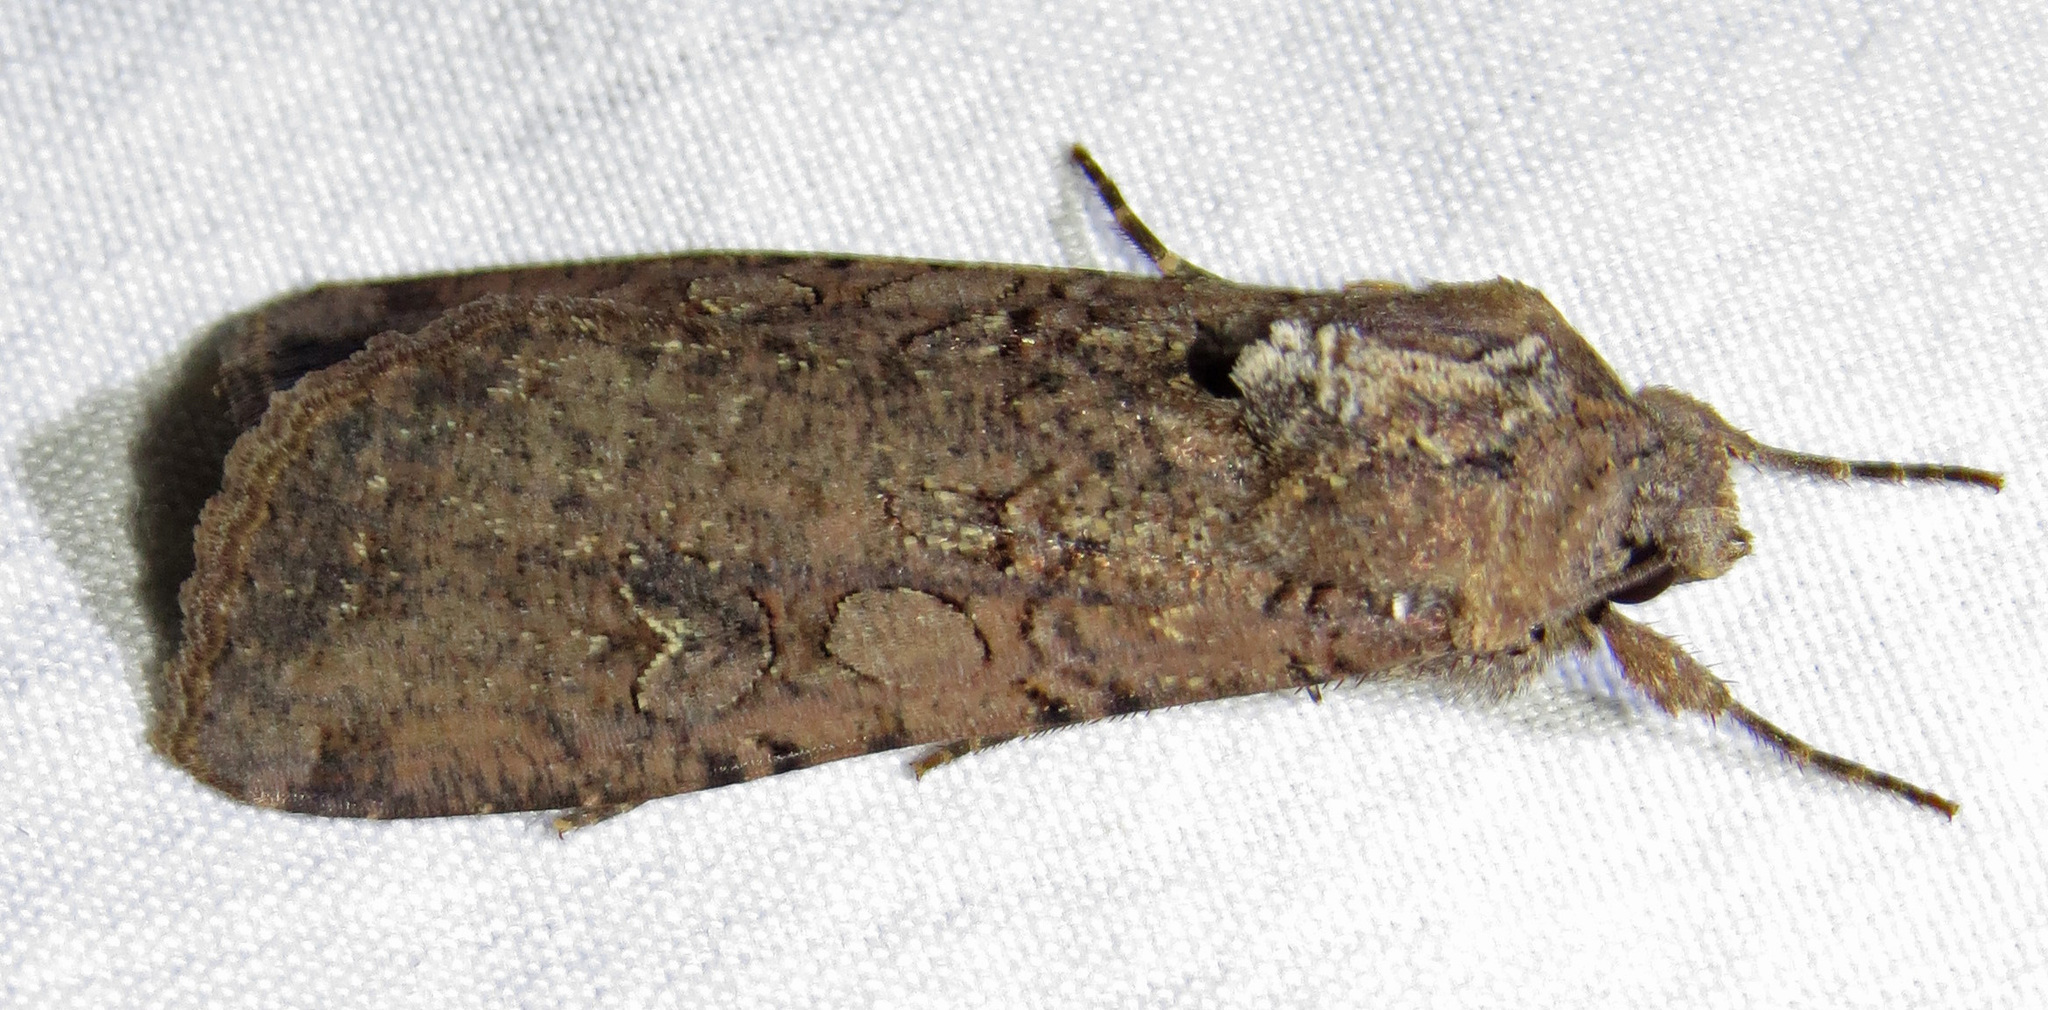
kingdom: Animalia
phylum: Arthropoda
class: Insecta
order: Lepidoptera
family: Noctuidae
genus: Peridroma
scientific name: Peridroma saucia
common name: Pearly underwing
